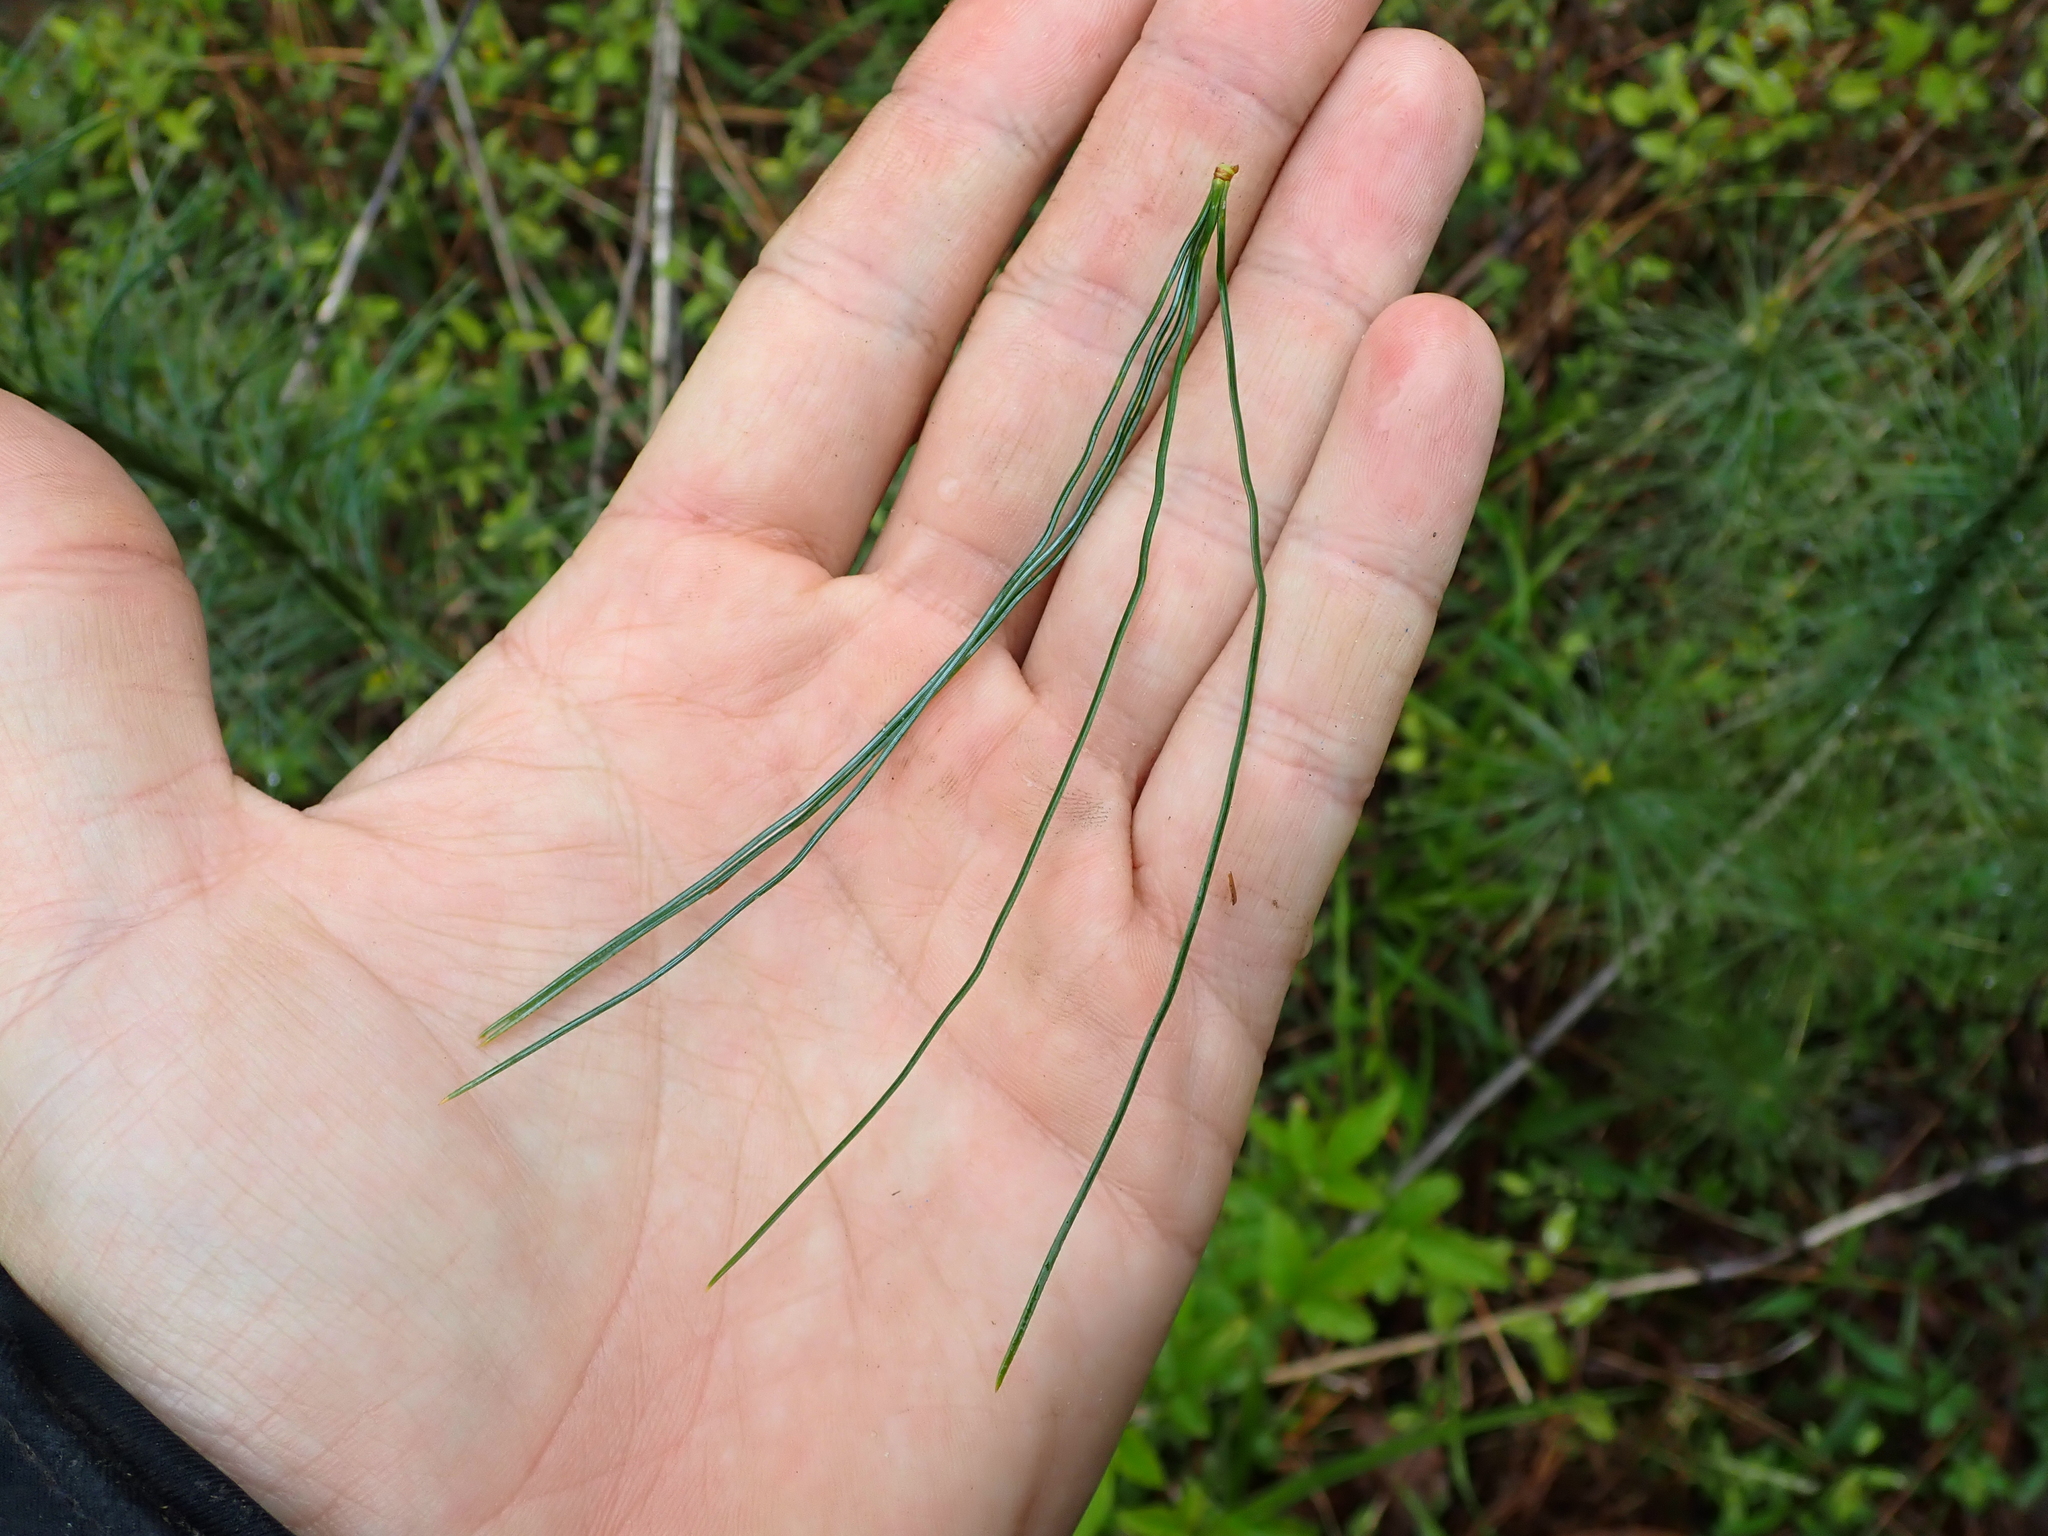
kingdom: Plantae
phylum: Tracheophyta
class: Pinopsida
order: Pinales
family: Pinaceae
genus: Pinus
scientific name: Pinus strobus
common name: Weymouth pine
